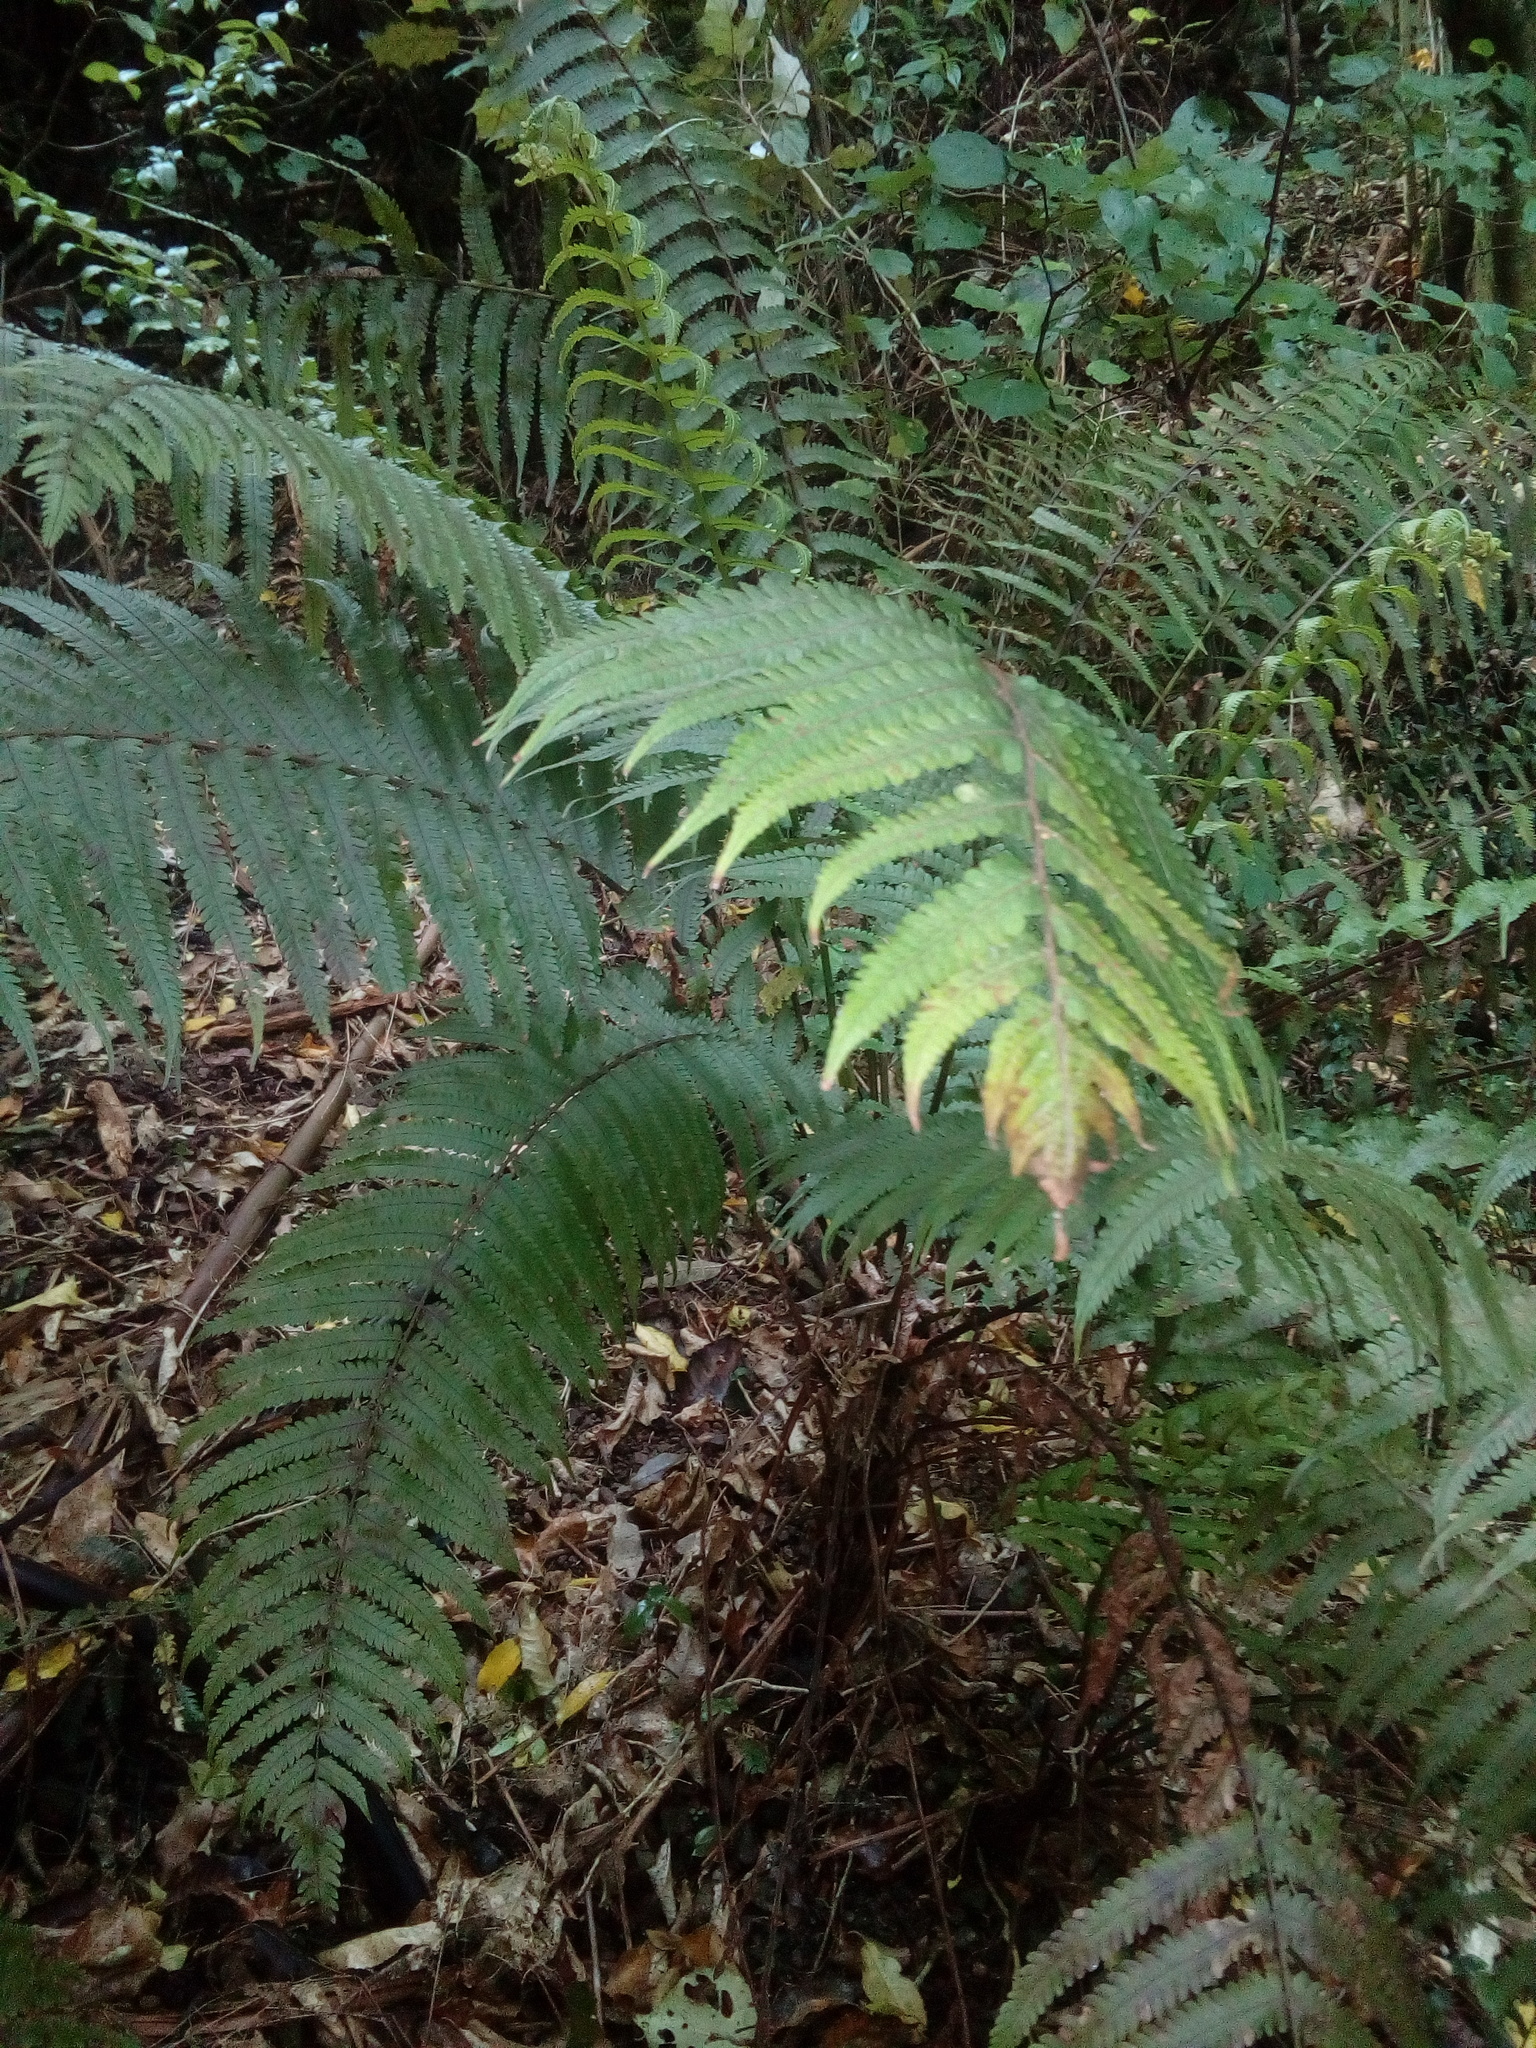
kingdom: Plantae
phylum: Tracheophyta
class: Polypodiopsida
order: Polypodiales
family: Thelypteridaceae
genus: Pakau
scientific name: Pakau pennigera
